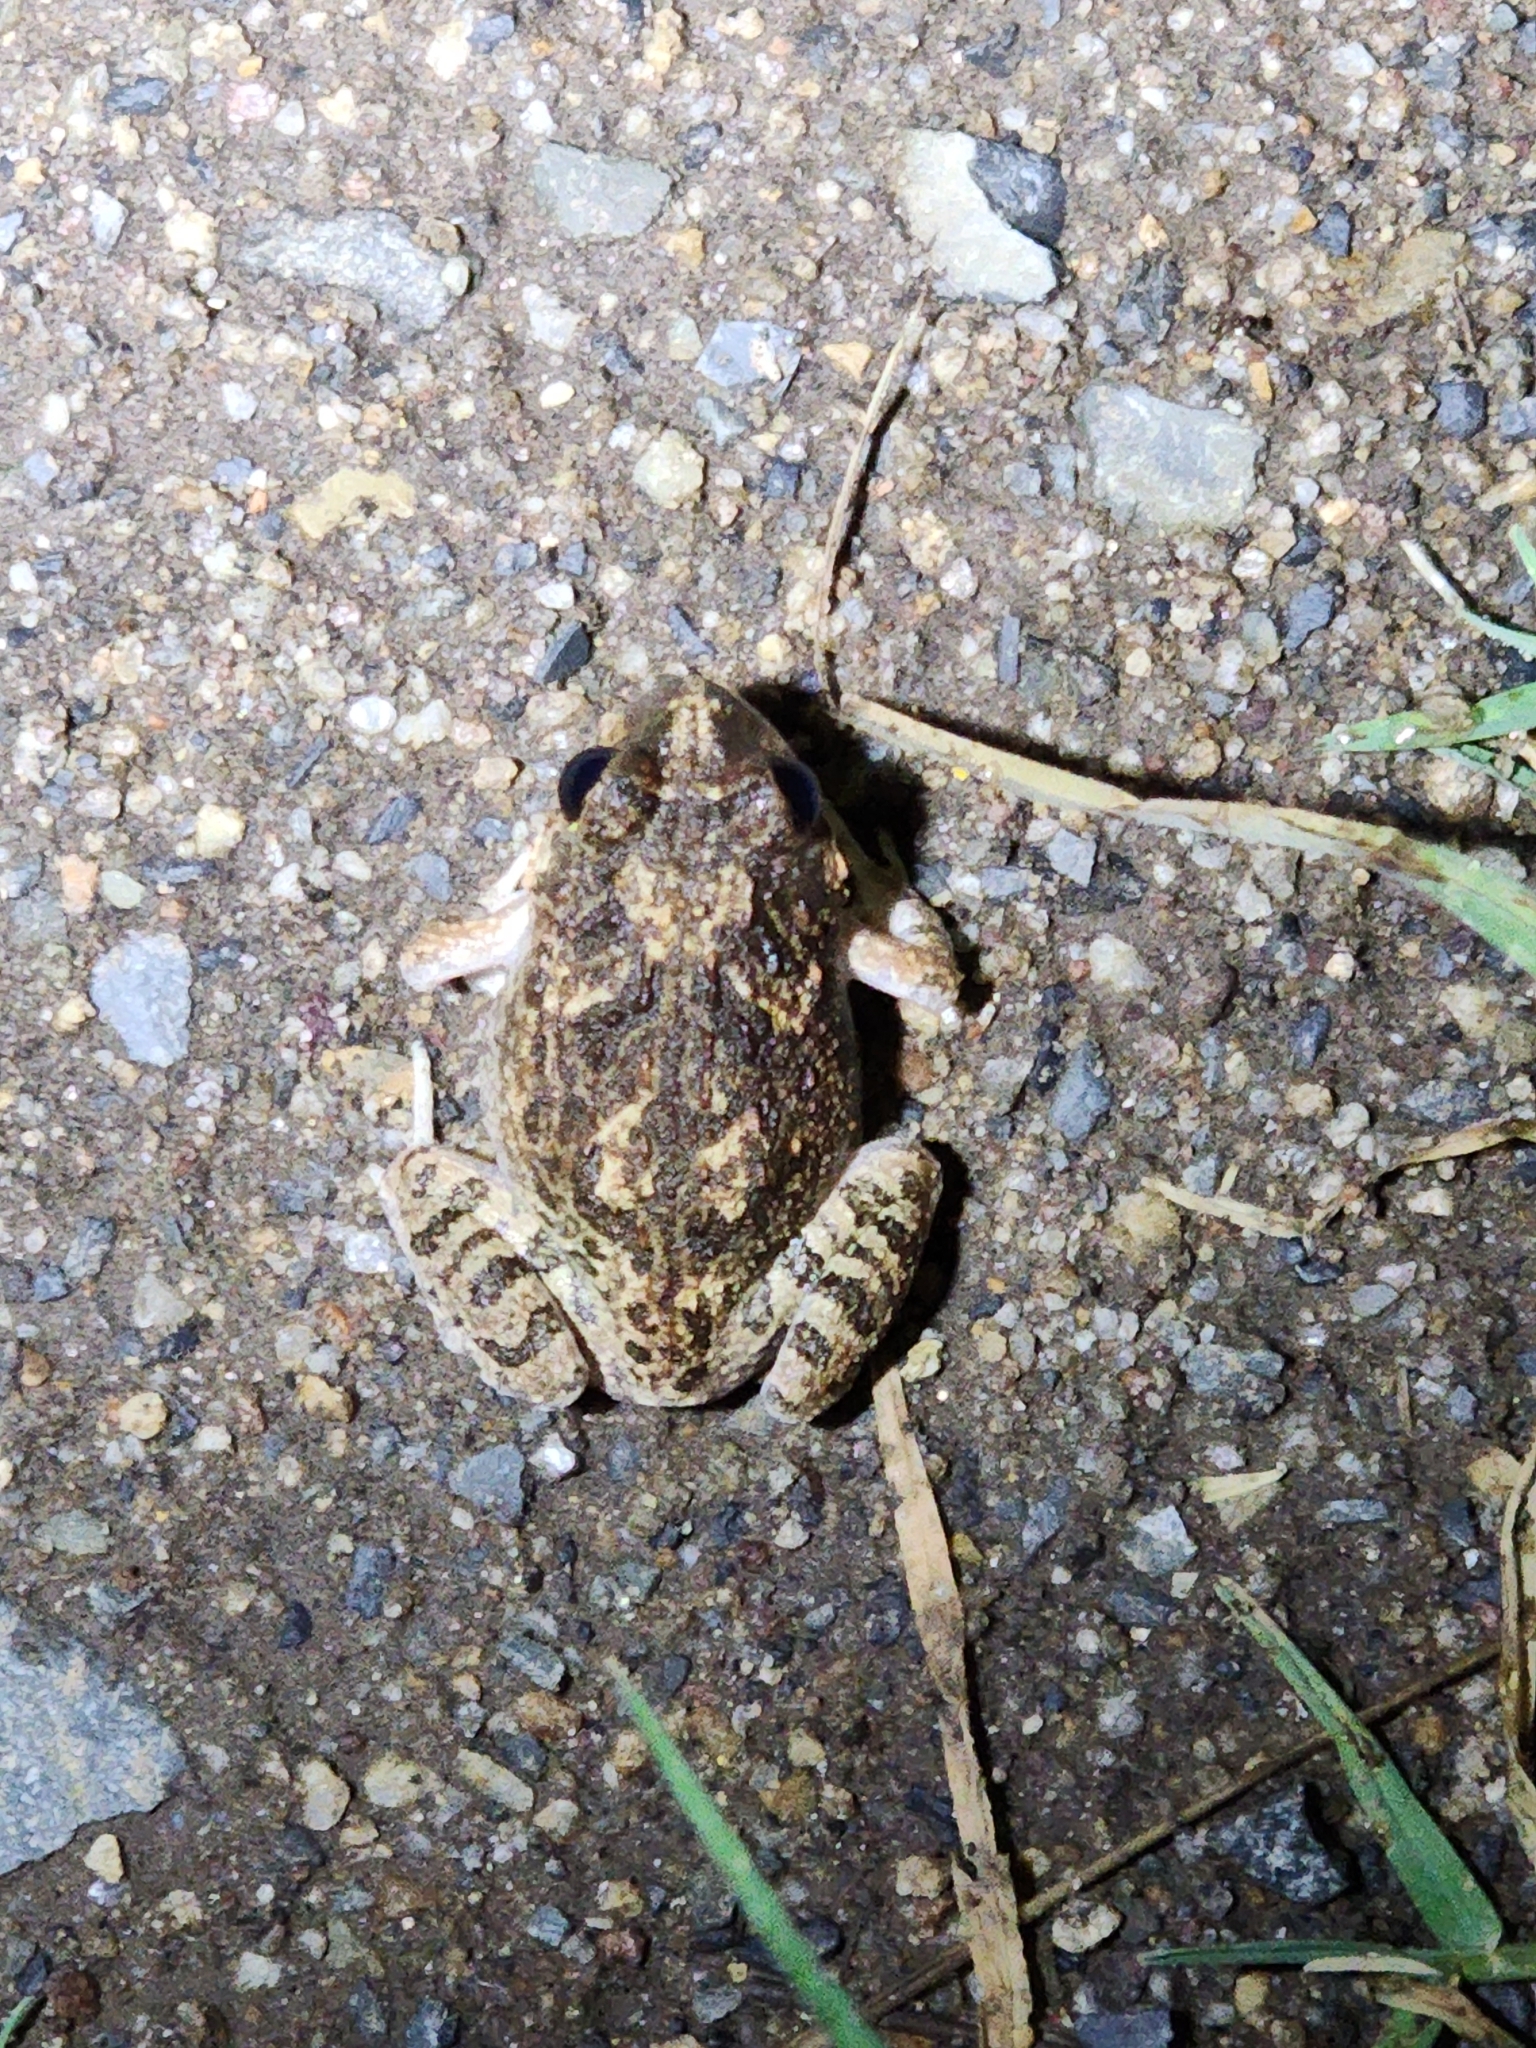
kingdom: Animalia
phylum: Chordata
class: Amphibia
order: Anura
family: Limnodynastidae
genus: Platyplectrum
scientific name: Platyplectrum ornatum
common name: Ornate burrowing frog
